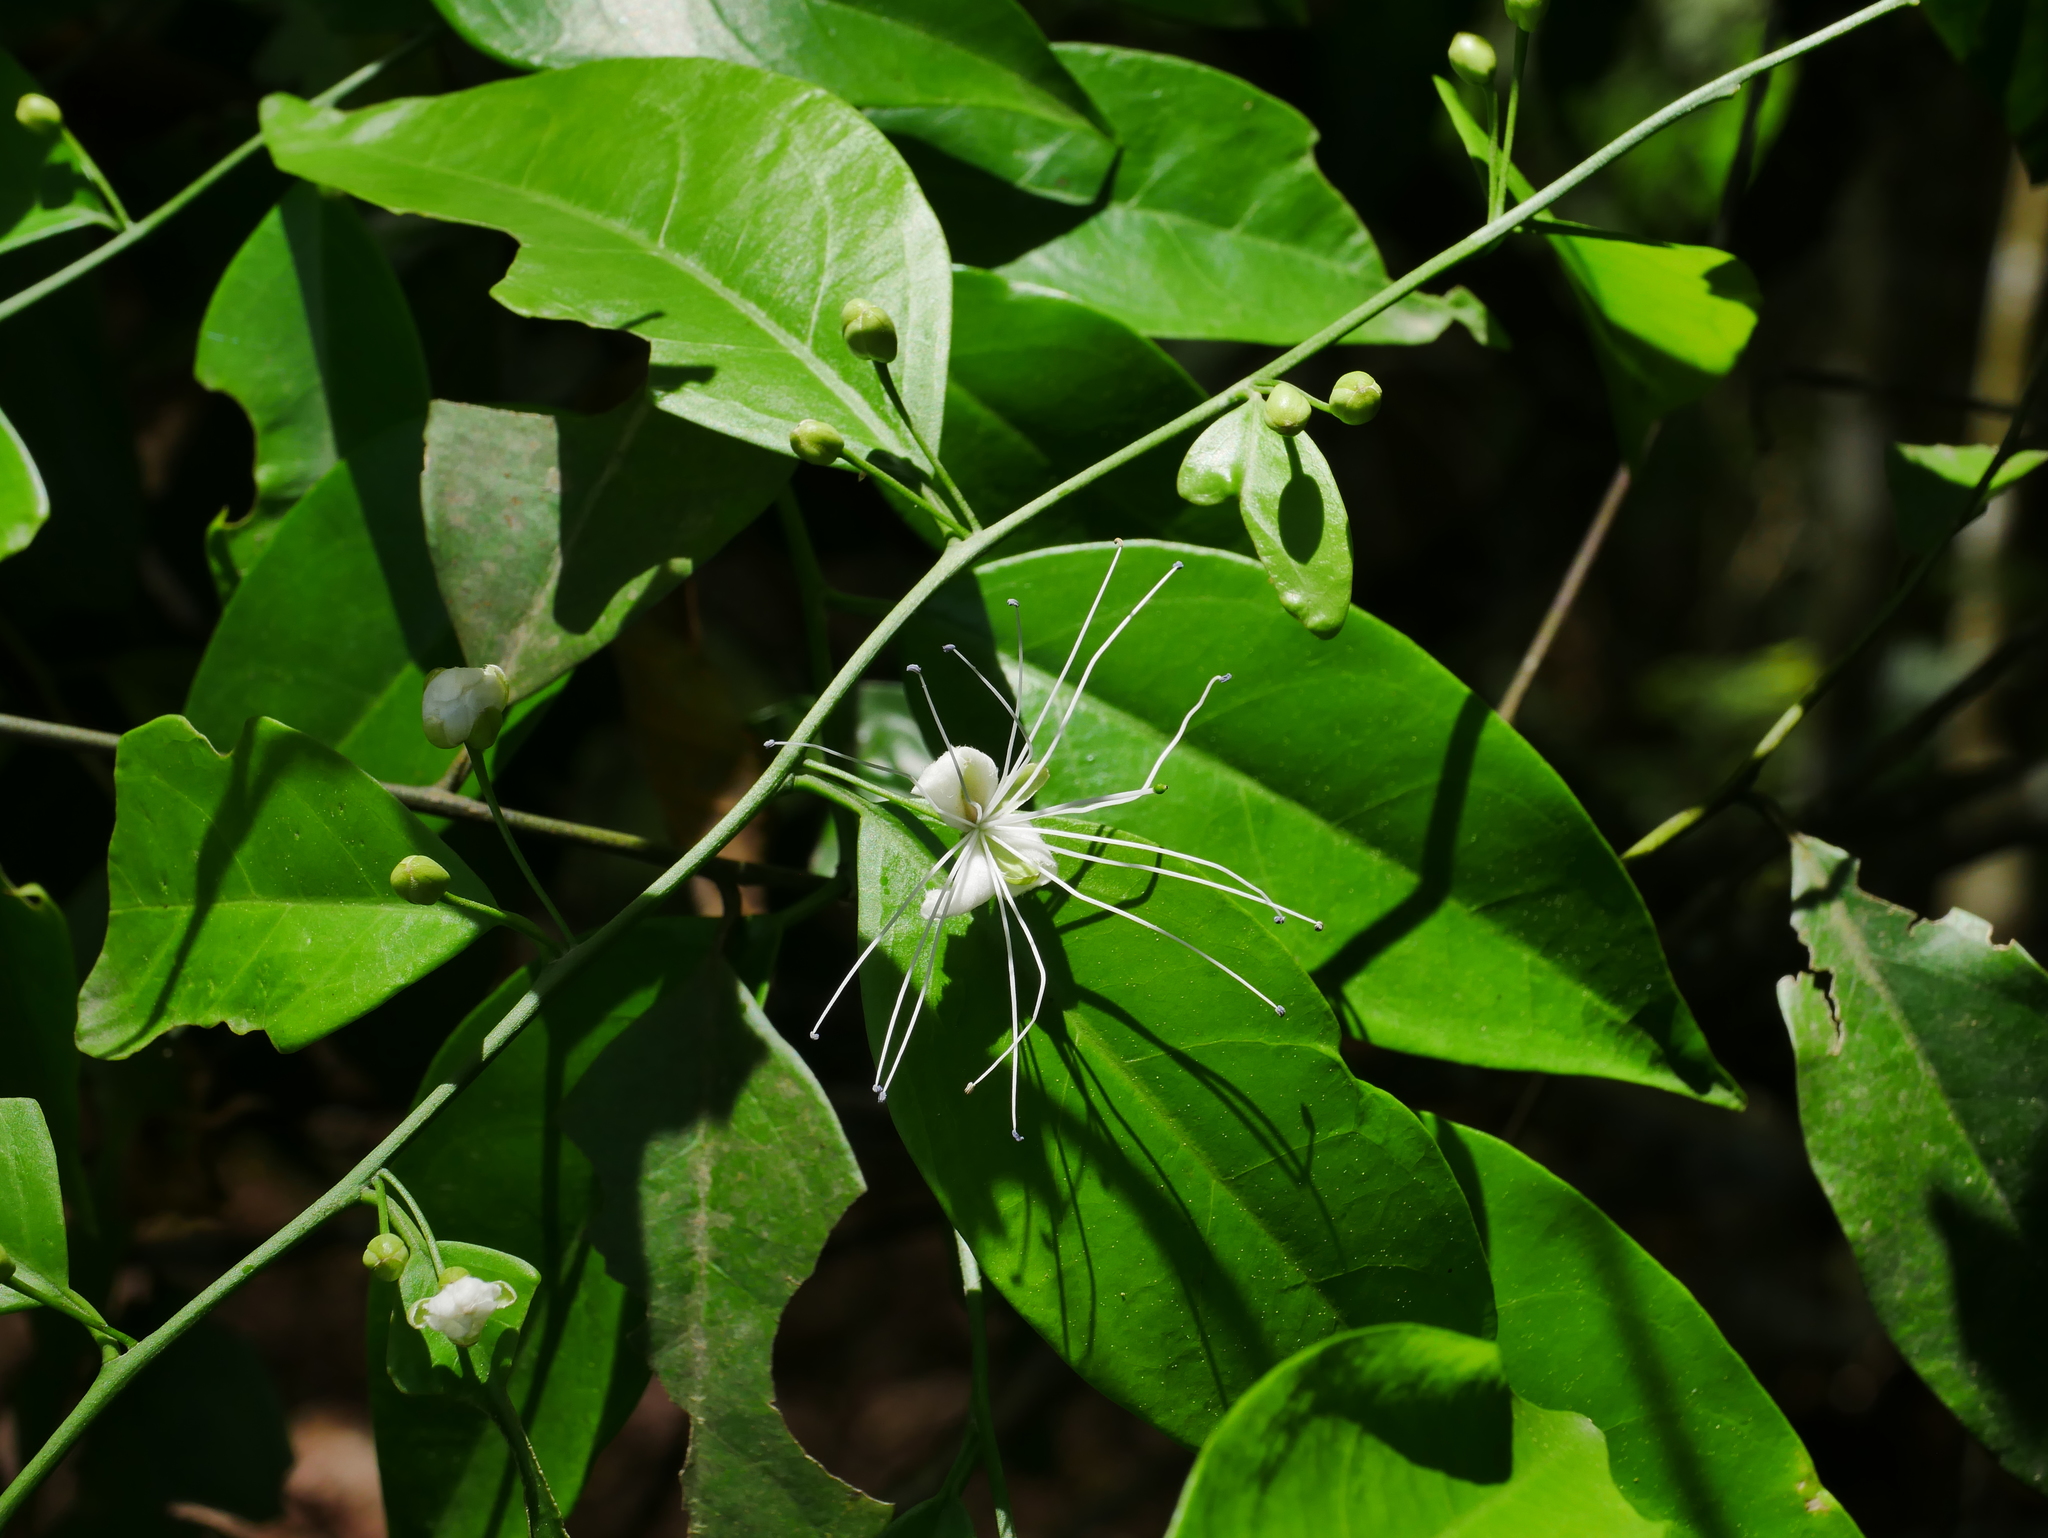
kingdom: Plantae
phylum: Tracheophyta
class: Magnoliopsida
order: Brassicales
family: Capparaceae
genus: Capparis
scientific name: Capparis sabiifolia
